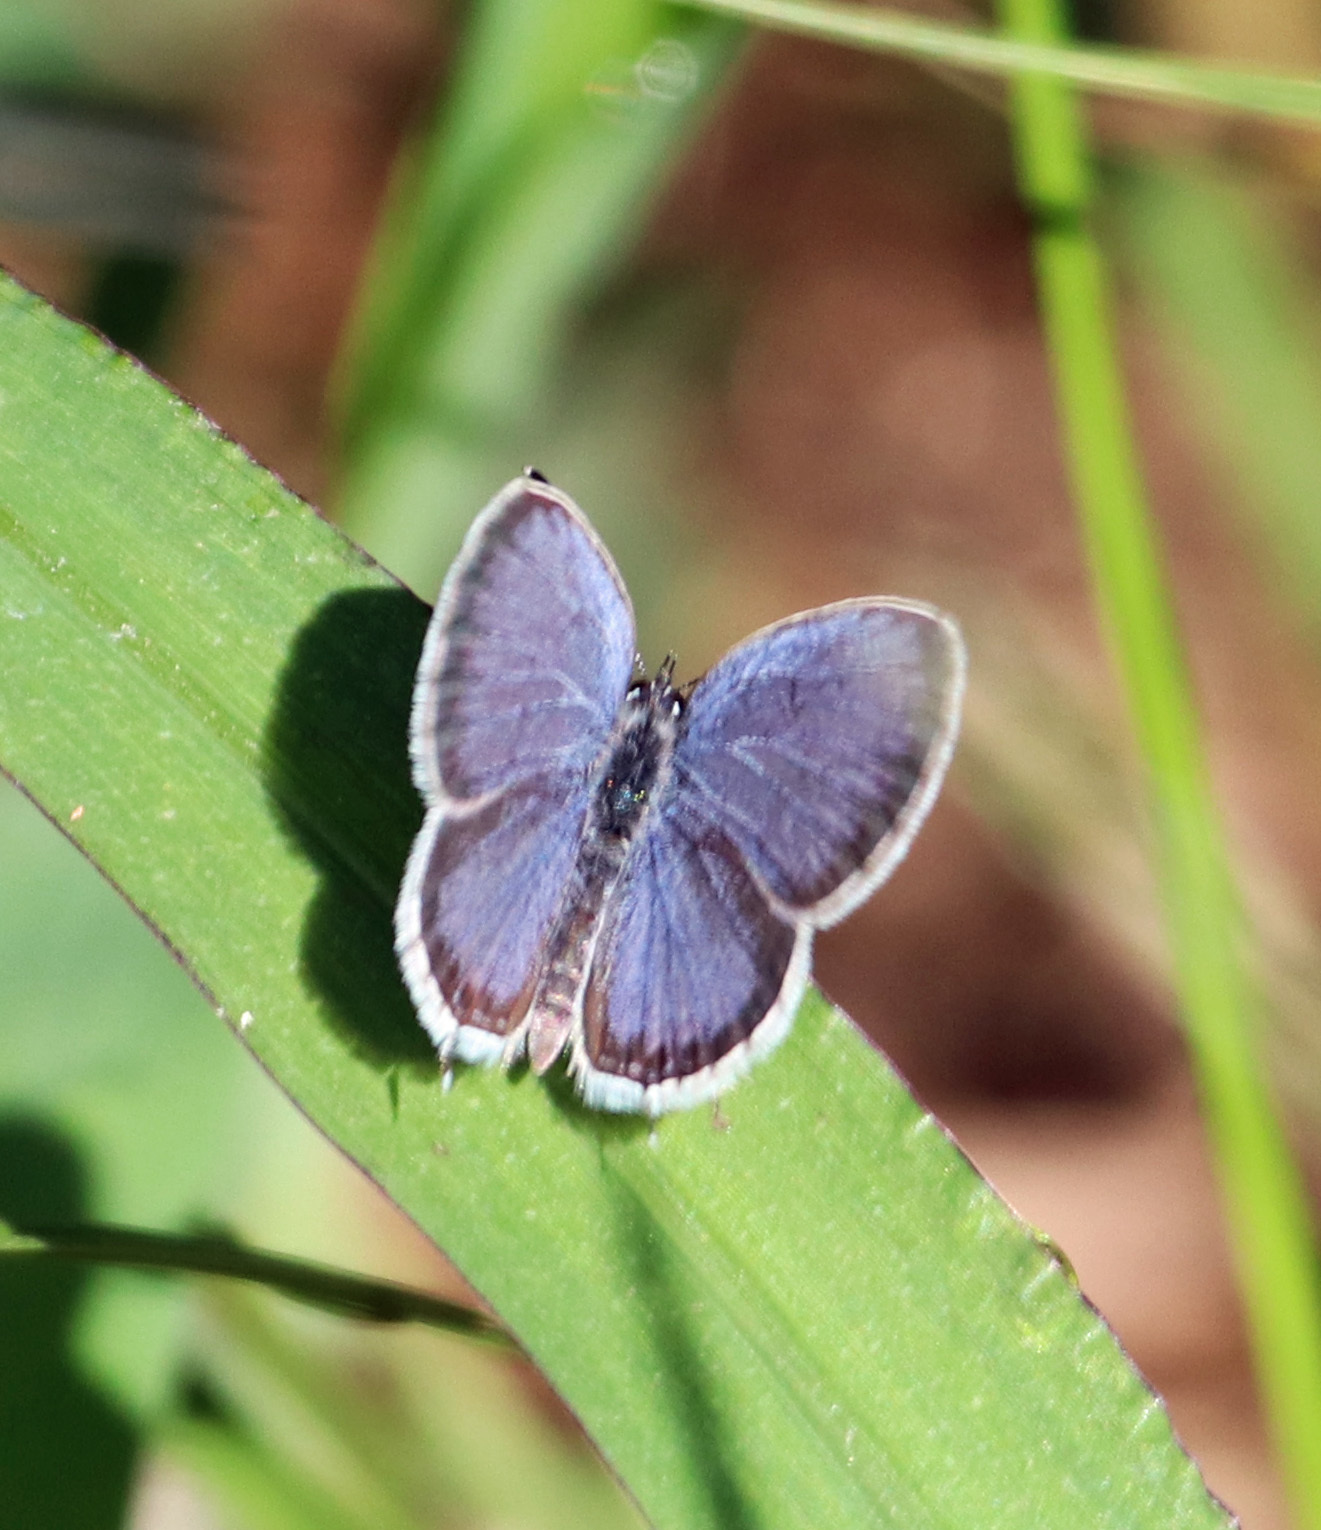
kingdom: Animalia
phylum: Arthropoda
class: Insecta
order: Lepidoptera
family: Lycaenidae
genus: Elkalyce
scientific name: Elkalyce comyntas
